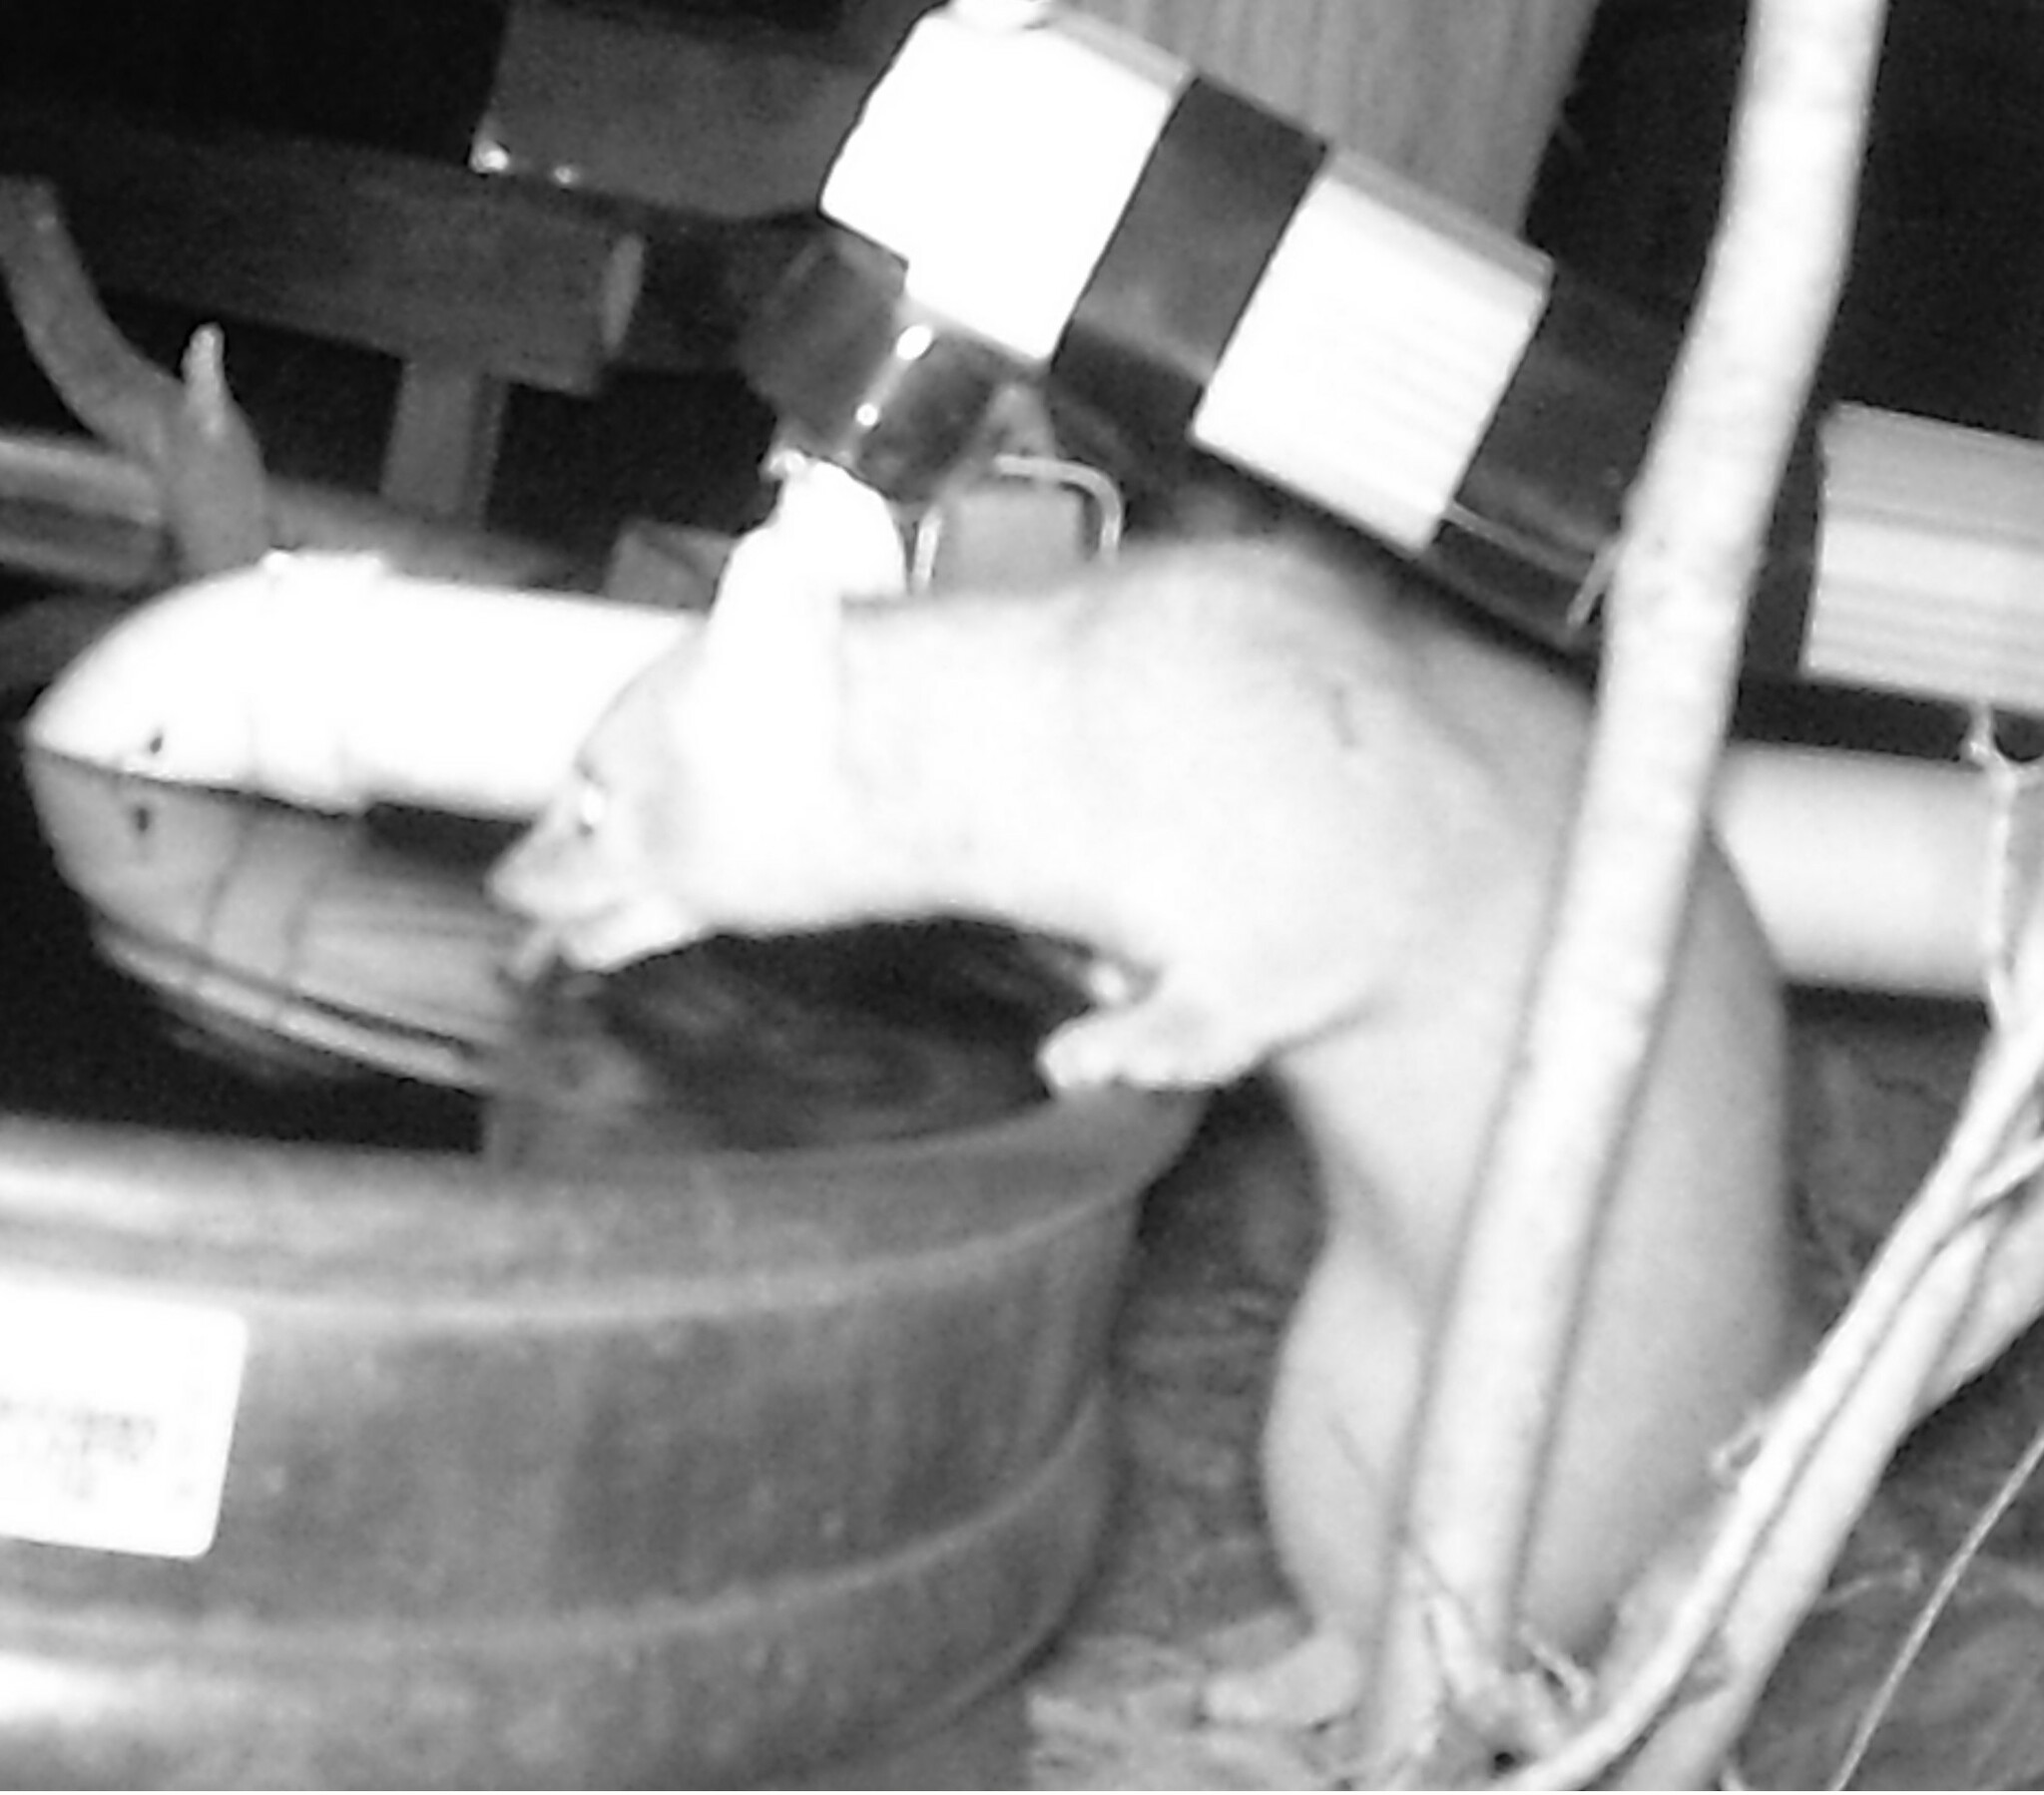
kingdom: Animalia
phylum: Chordata
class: Mammalia
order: Carnivora
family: Procyonidae
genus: Bassariscus
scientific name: Bassariscus astutus
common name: Ringtail
